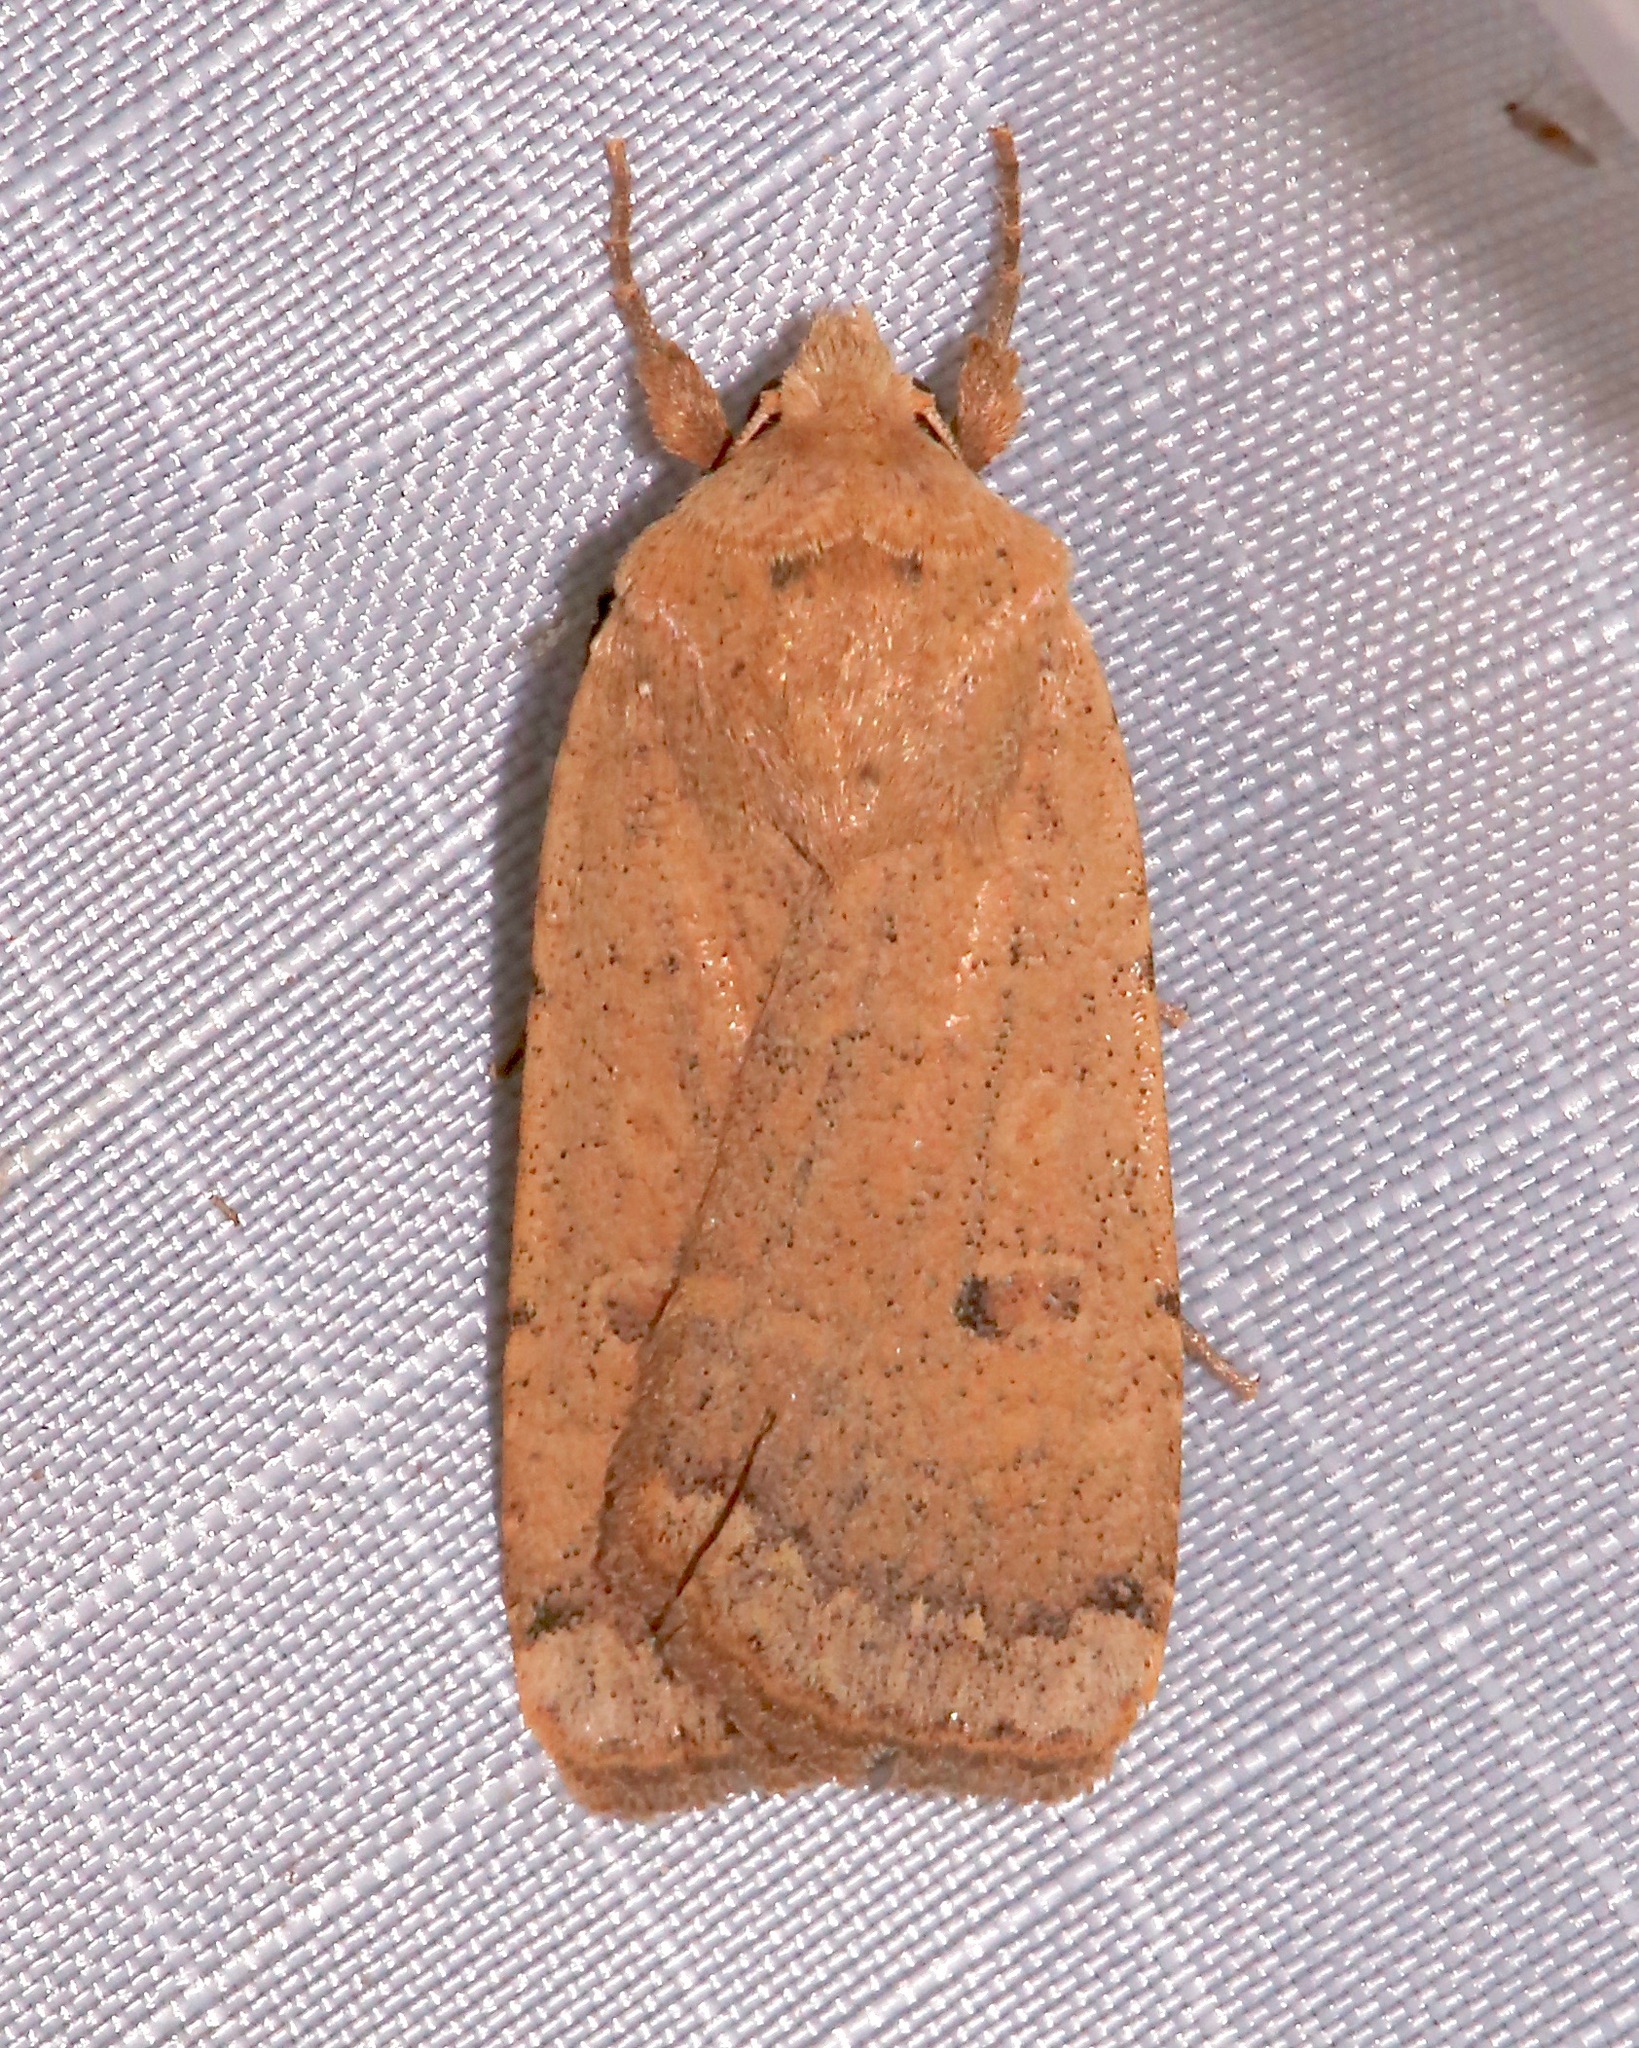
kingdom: Animalia
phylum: Arthropoda
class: Insecta
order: Lepidoptera
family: Noctuidae
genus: Abagrotis
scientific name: Abagrotis orbis
